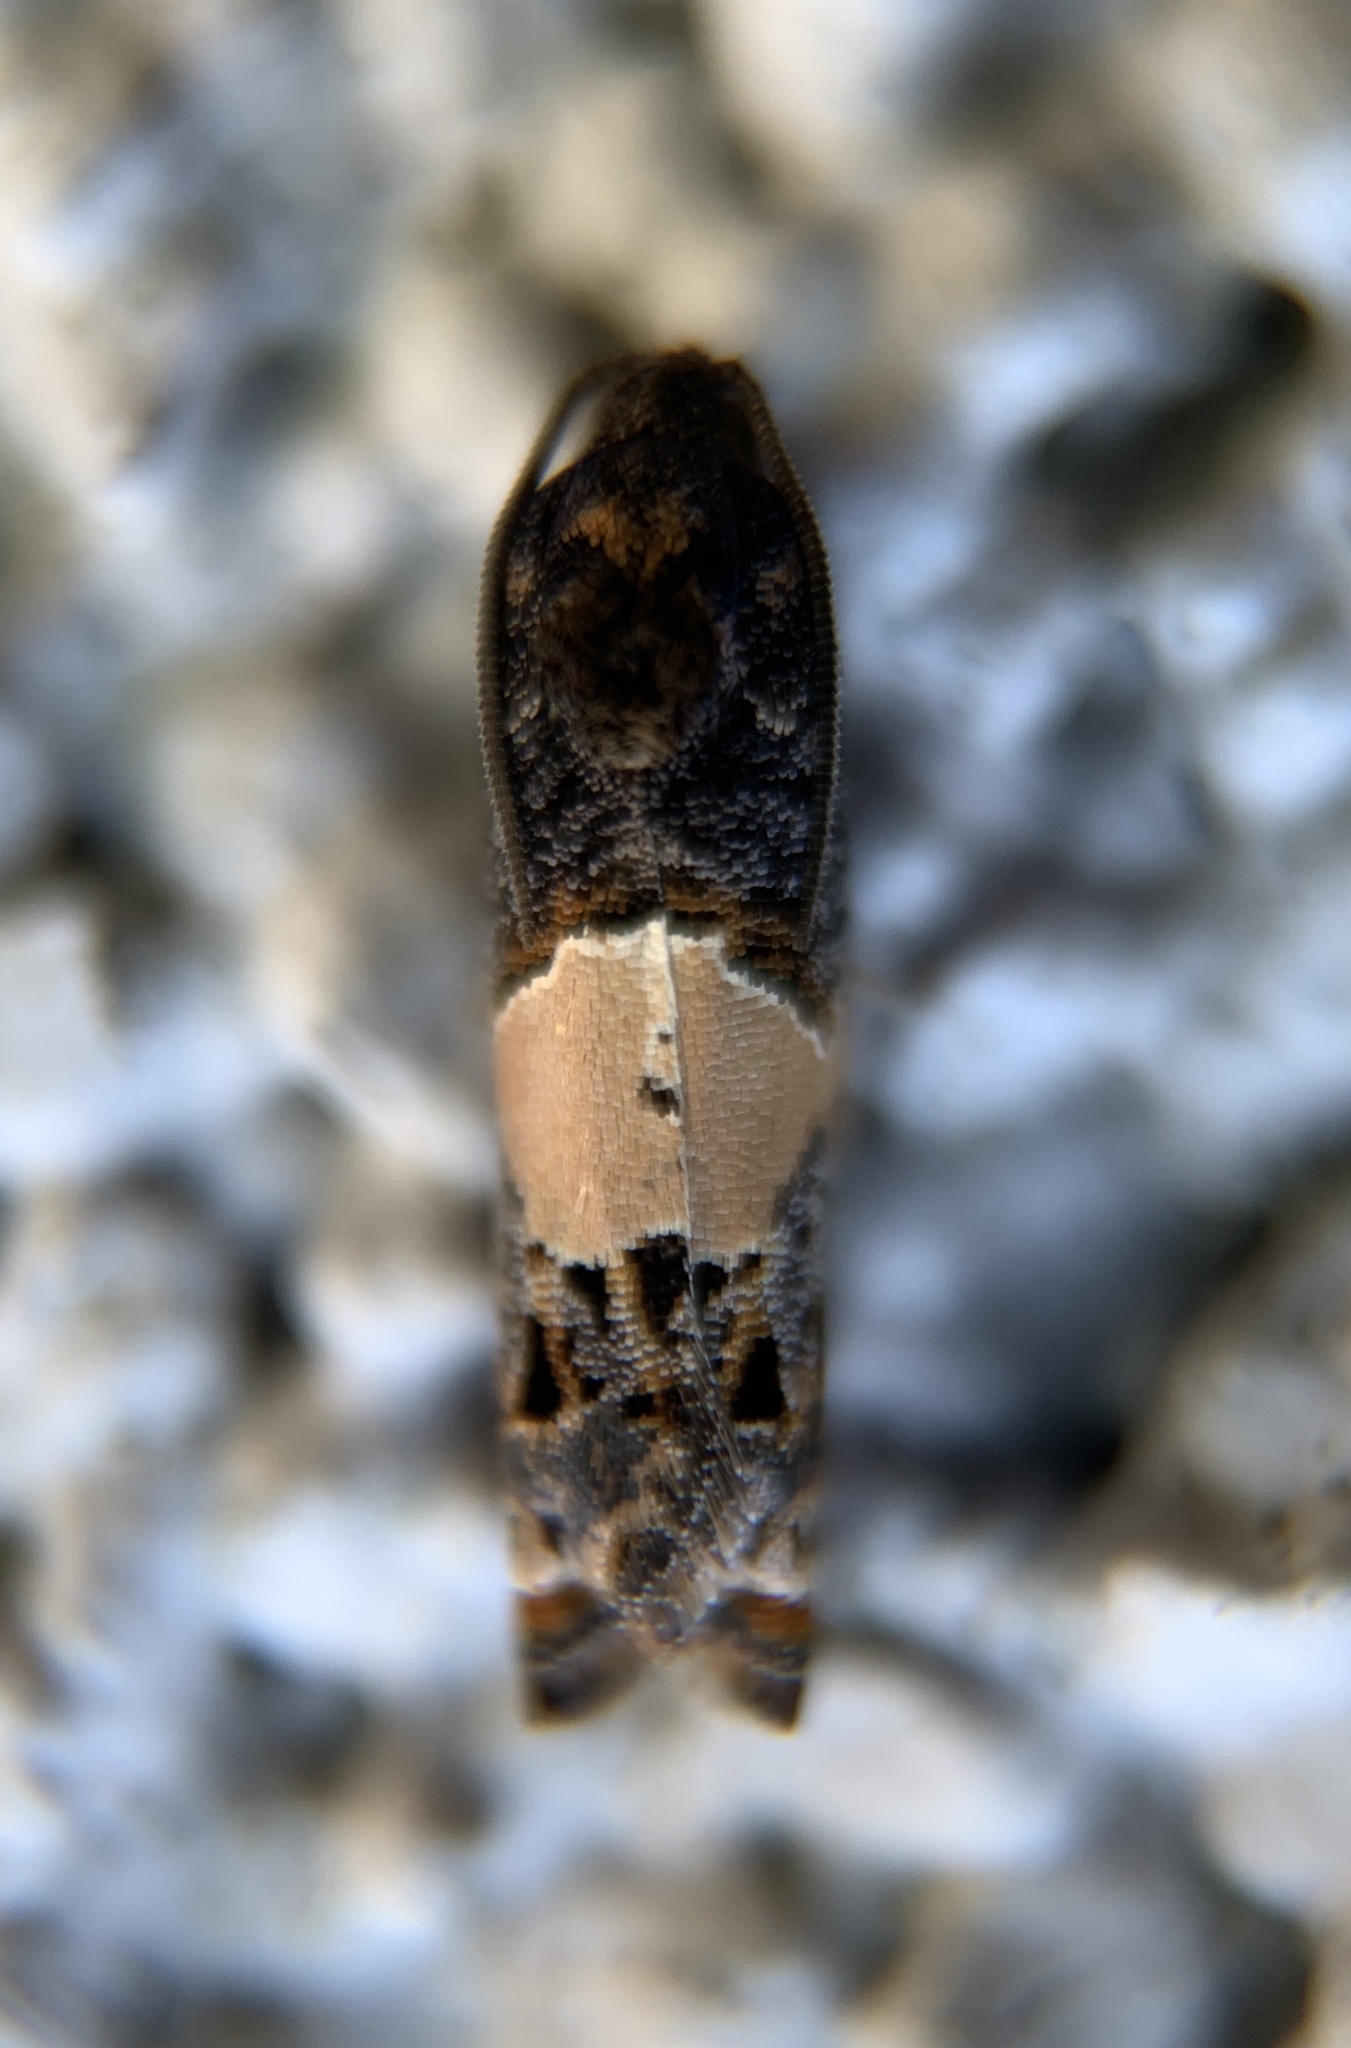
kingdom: Animalia
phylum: Arthropoda
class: Insecta
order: Lepidoptera
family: Tortricidae
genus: Epiblema
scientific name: Epiblema glenni
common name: Glenn's epiblema
